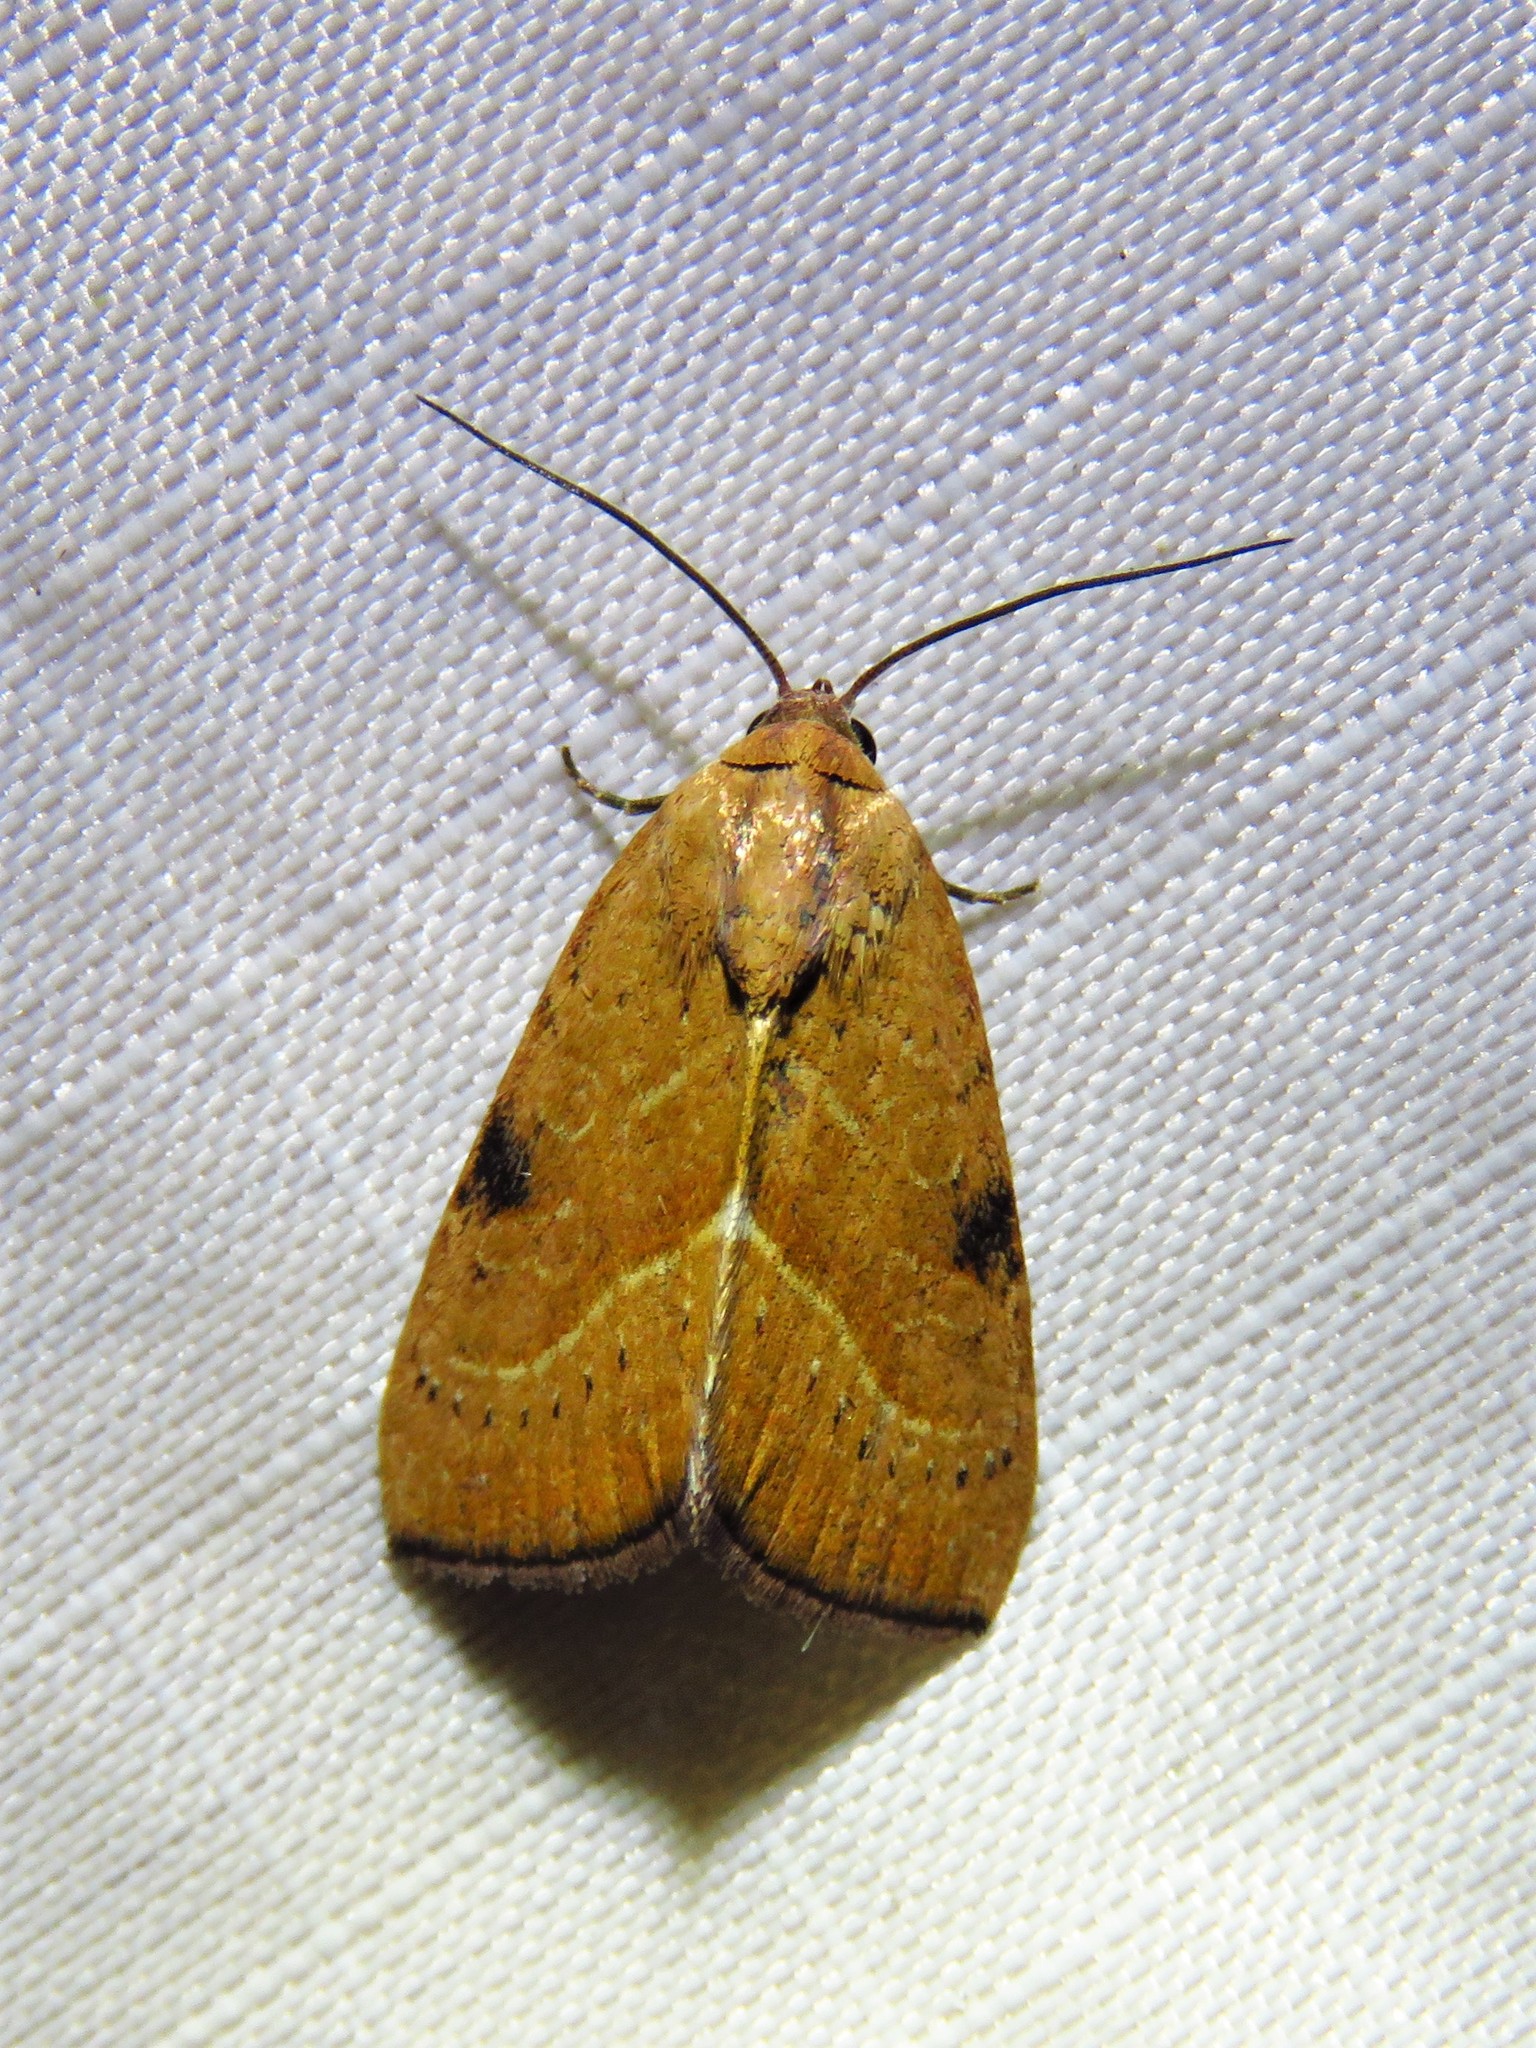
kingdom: Animalia
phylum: Arthropoda
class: Insecta
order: Lepidoptera
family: Noctuidae
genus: Galgula
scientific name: Galgula partita
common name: Wedgeling
